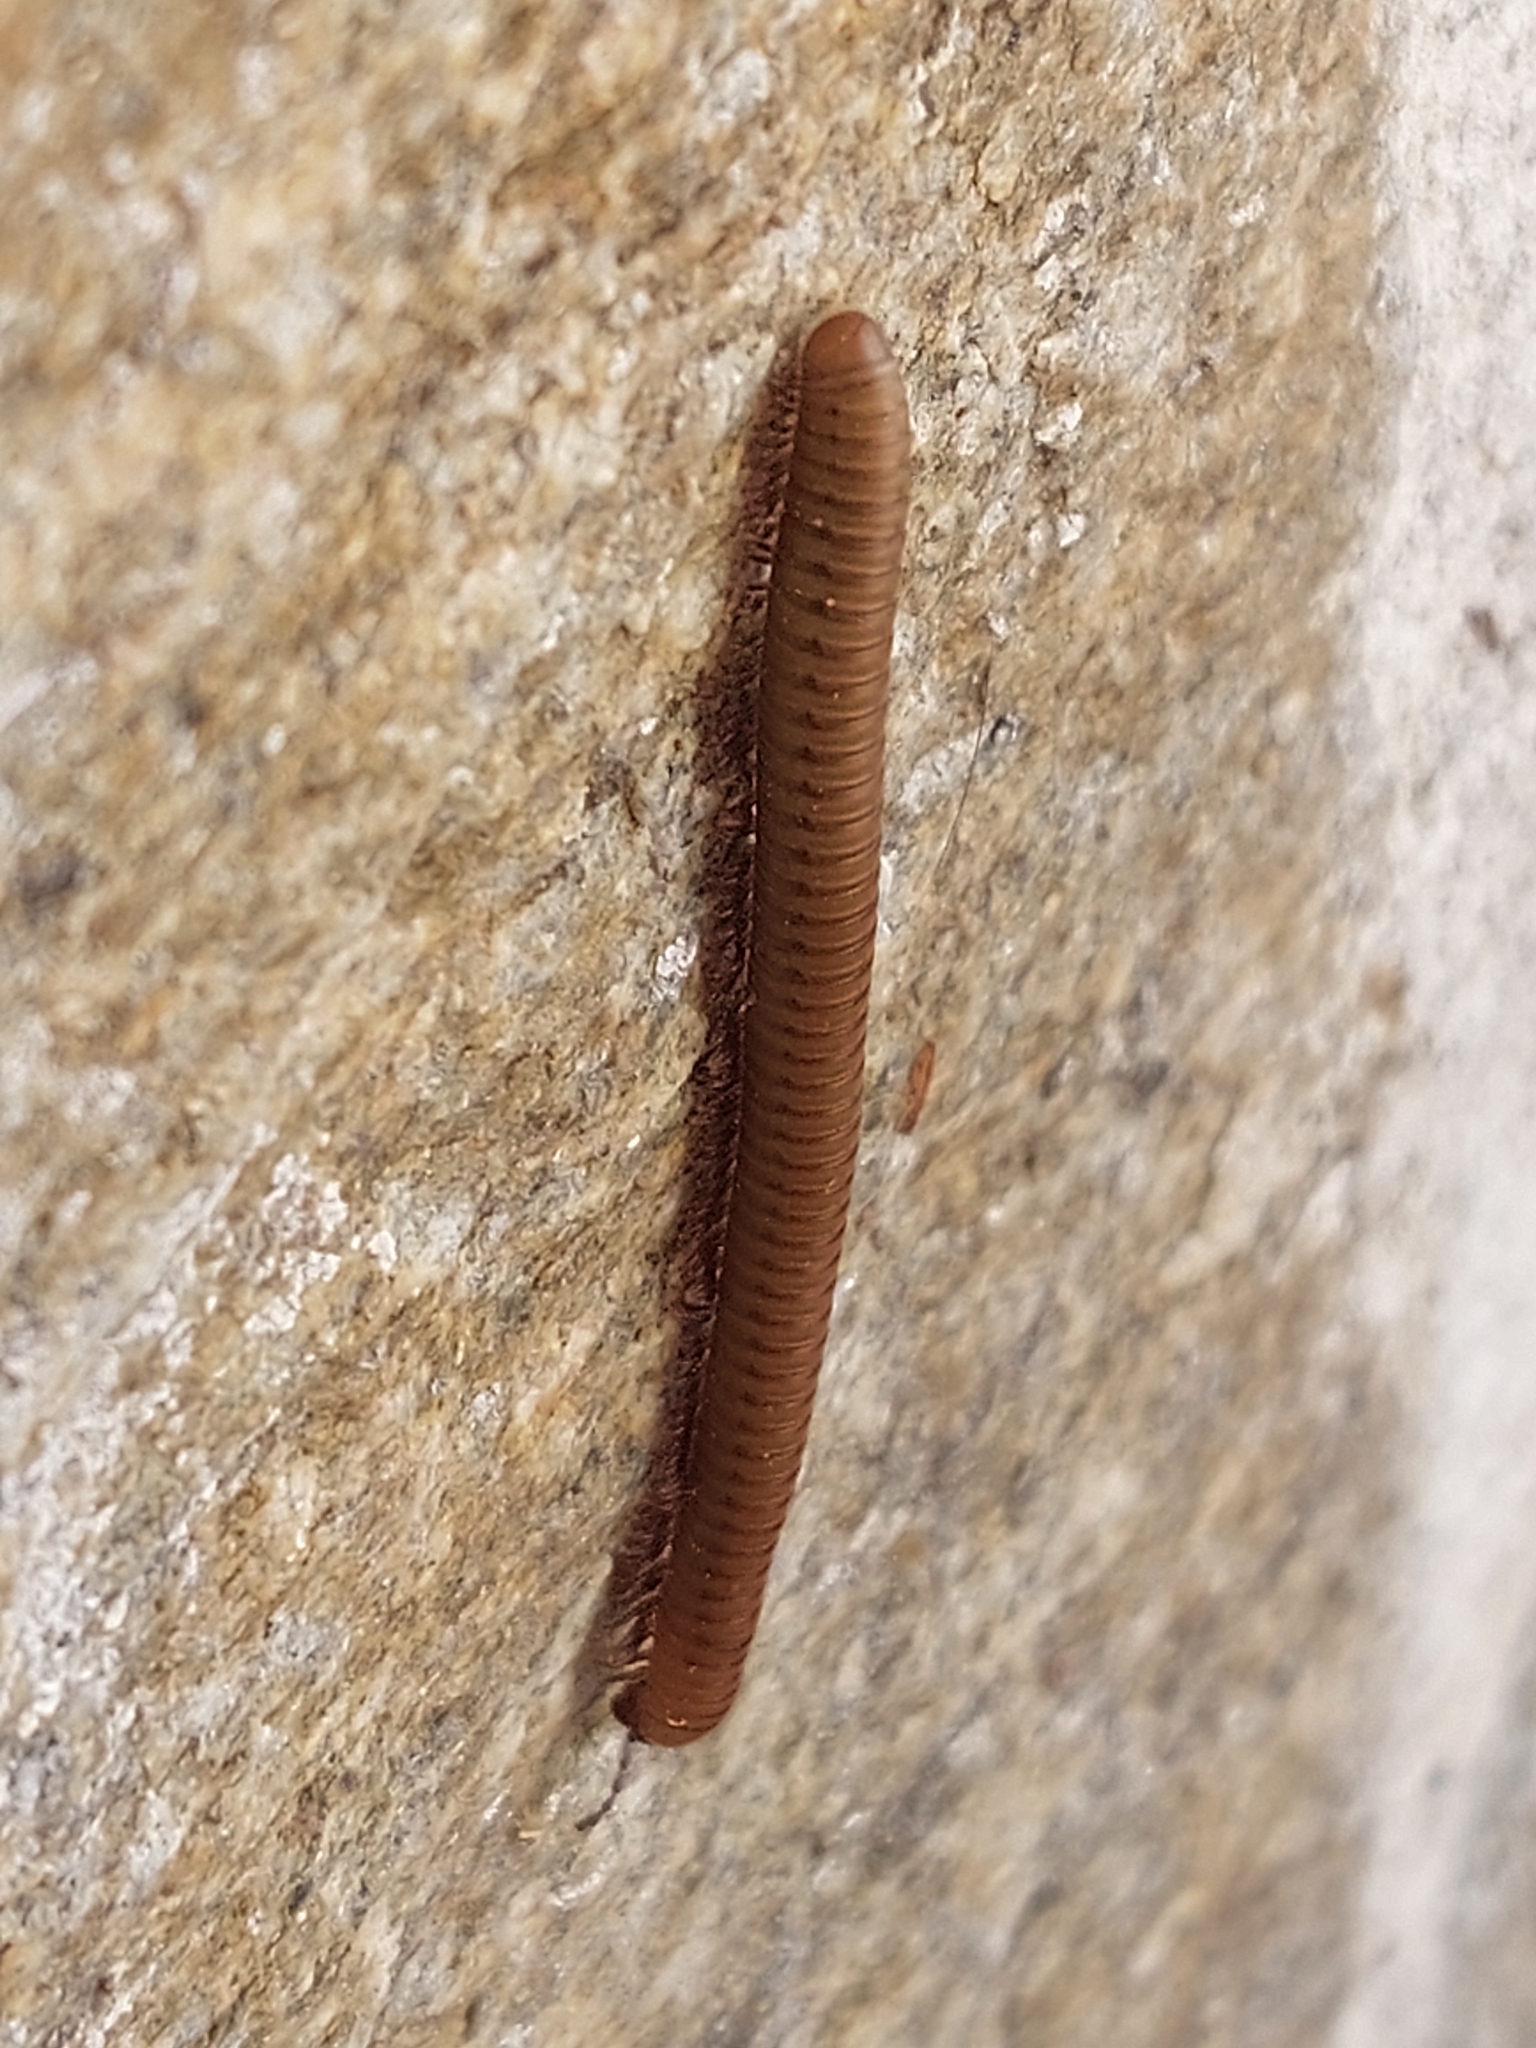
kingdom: Animalia
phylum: Arthropoda
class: Diplopoda
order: Julida
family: Julidae
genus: Pachyiulus
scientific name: Pachyiulus cattarensis
